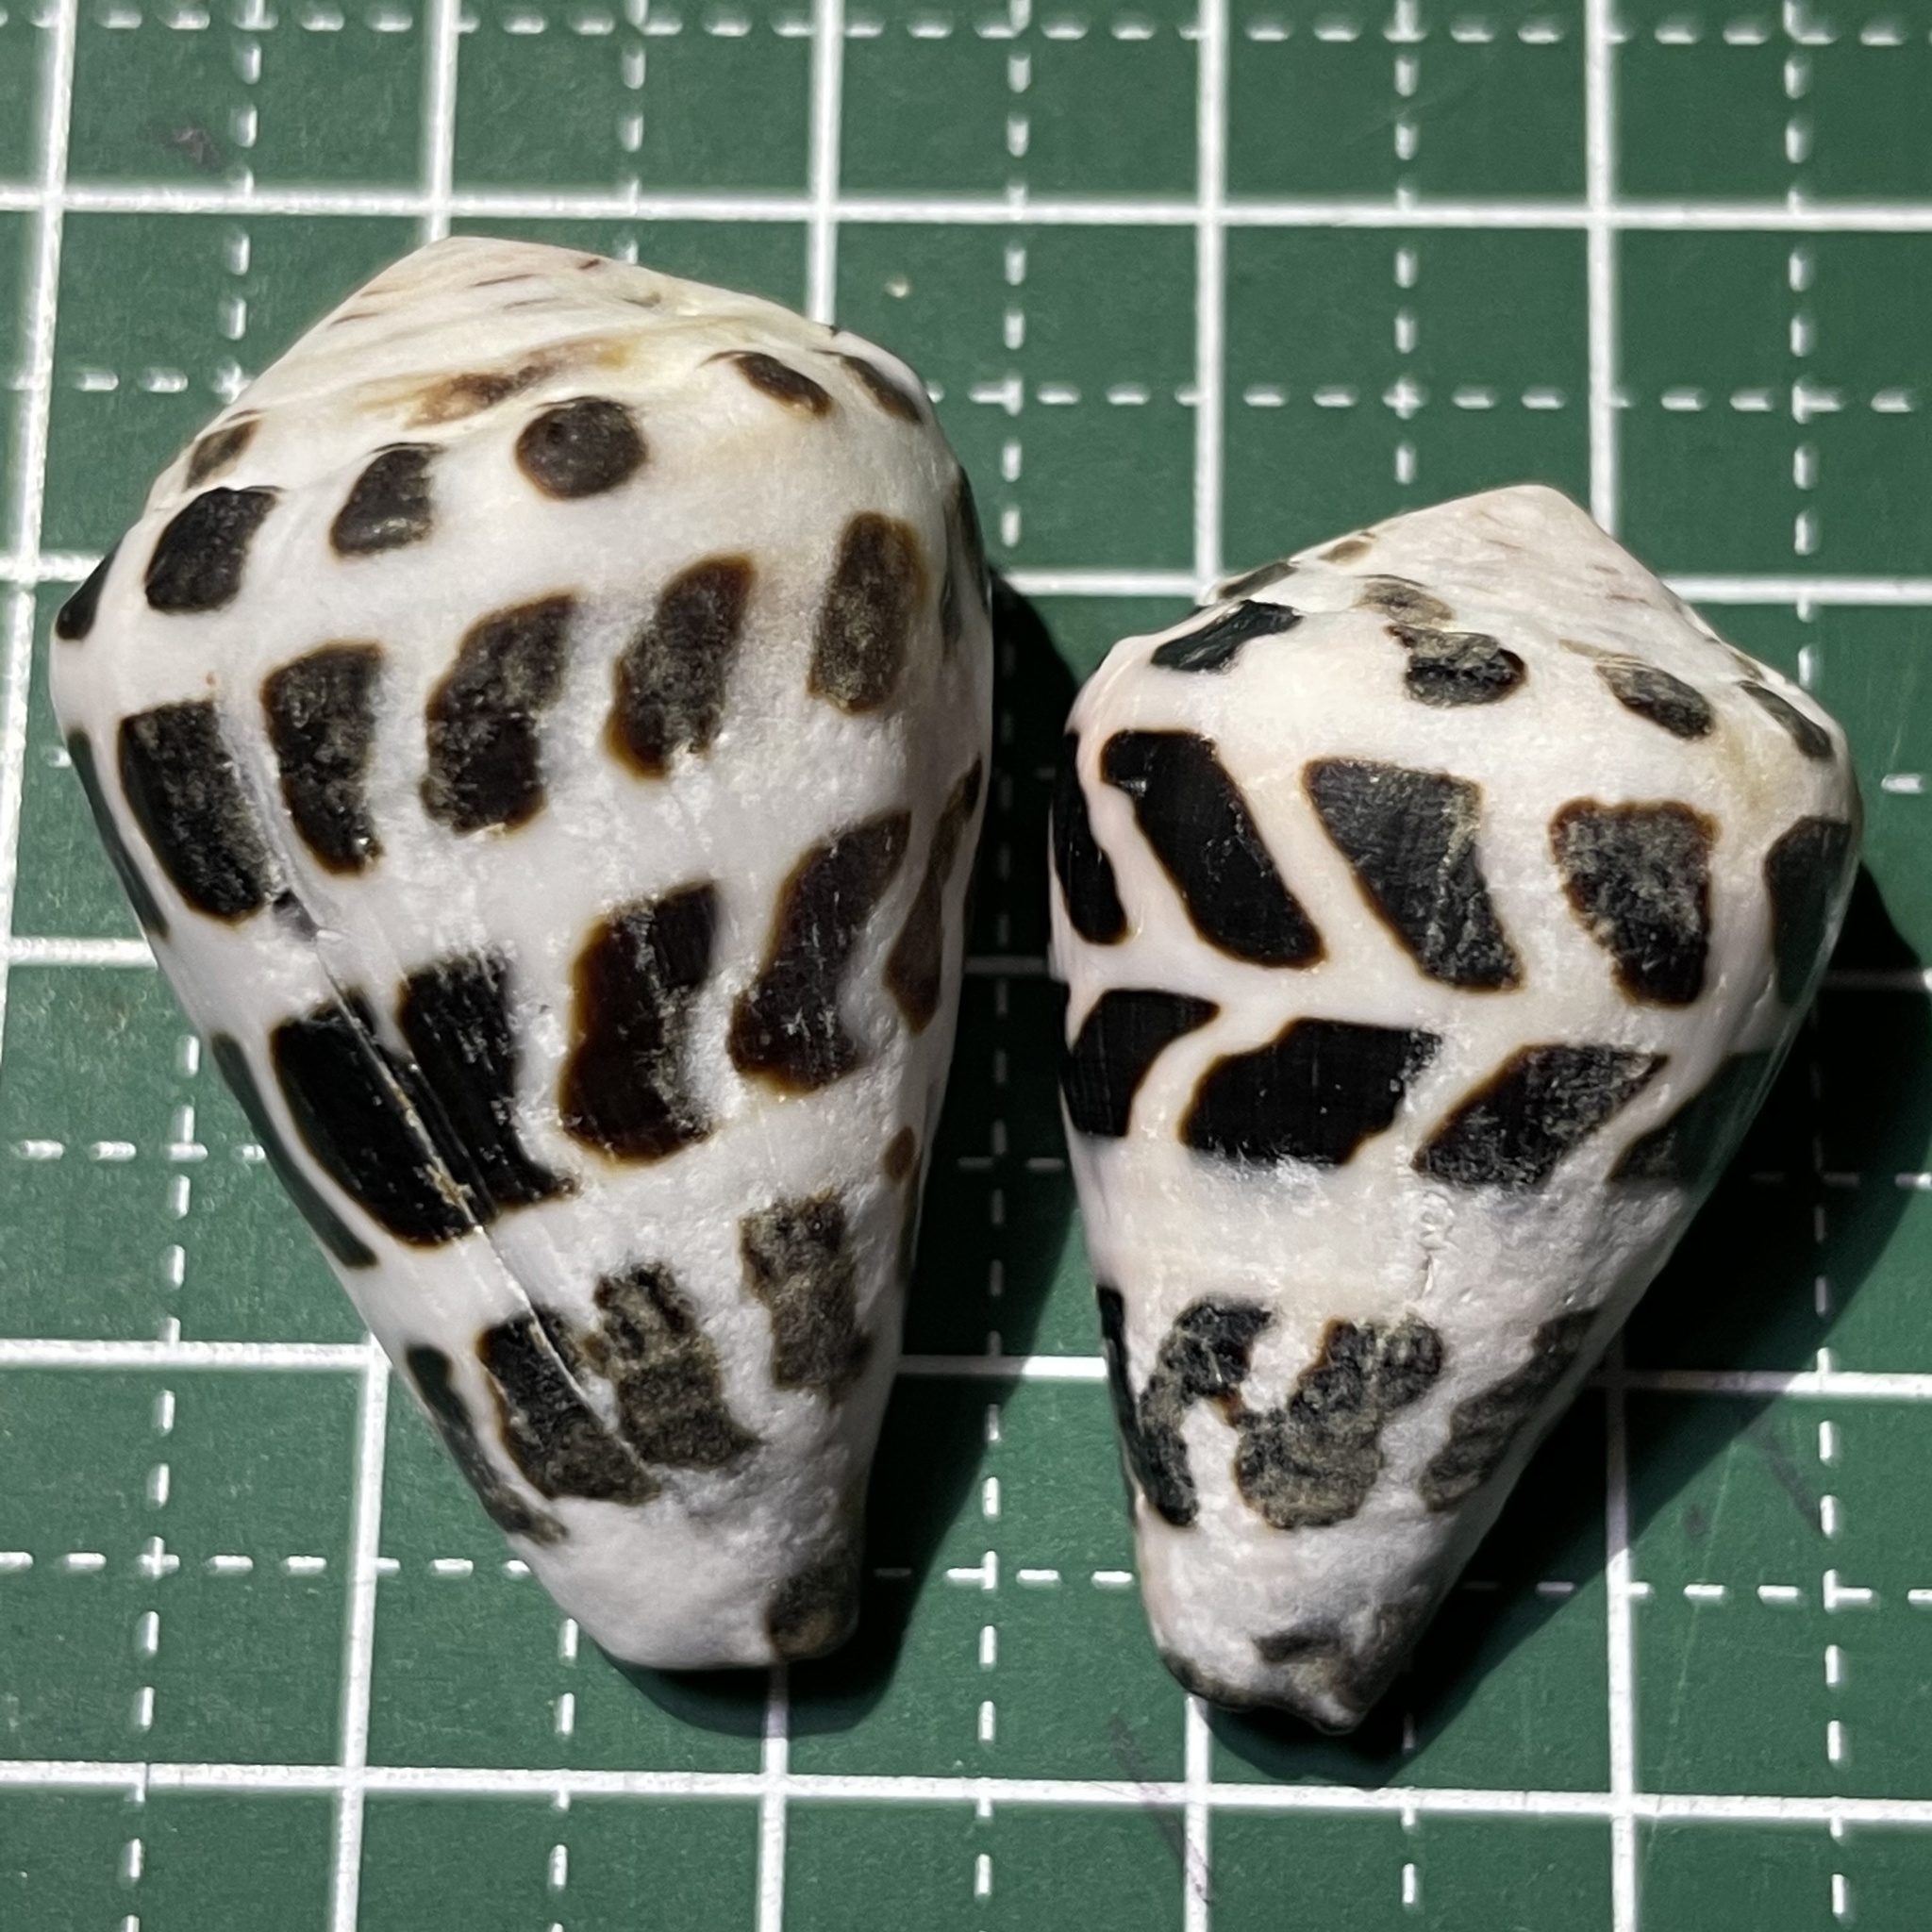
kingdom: Animalia
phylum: Mollusca
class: Gastropoda
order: Neogastropoda
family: Conidae
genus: Conus
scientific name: Conus ebraeus
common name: Hebrew cone
